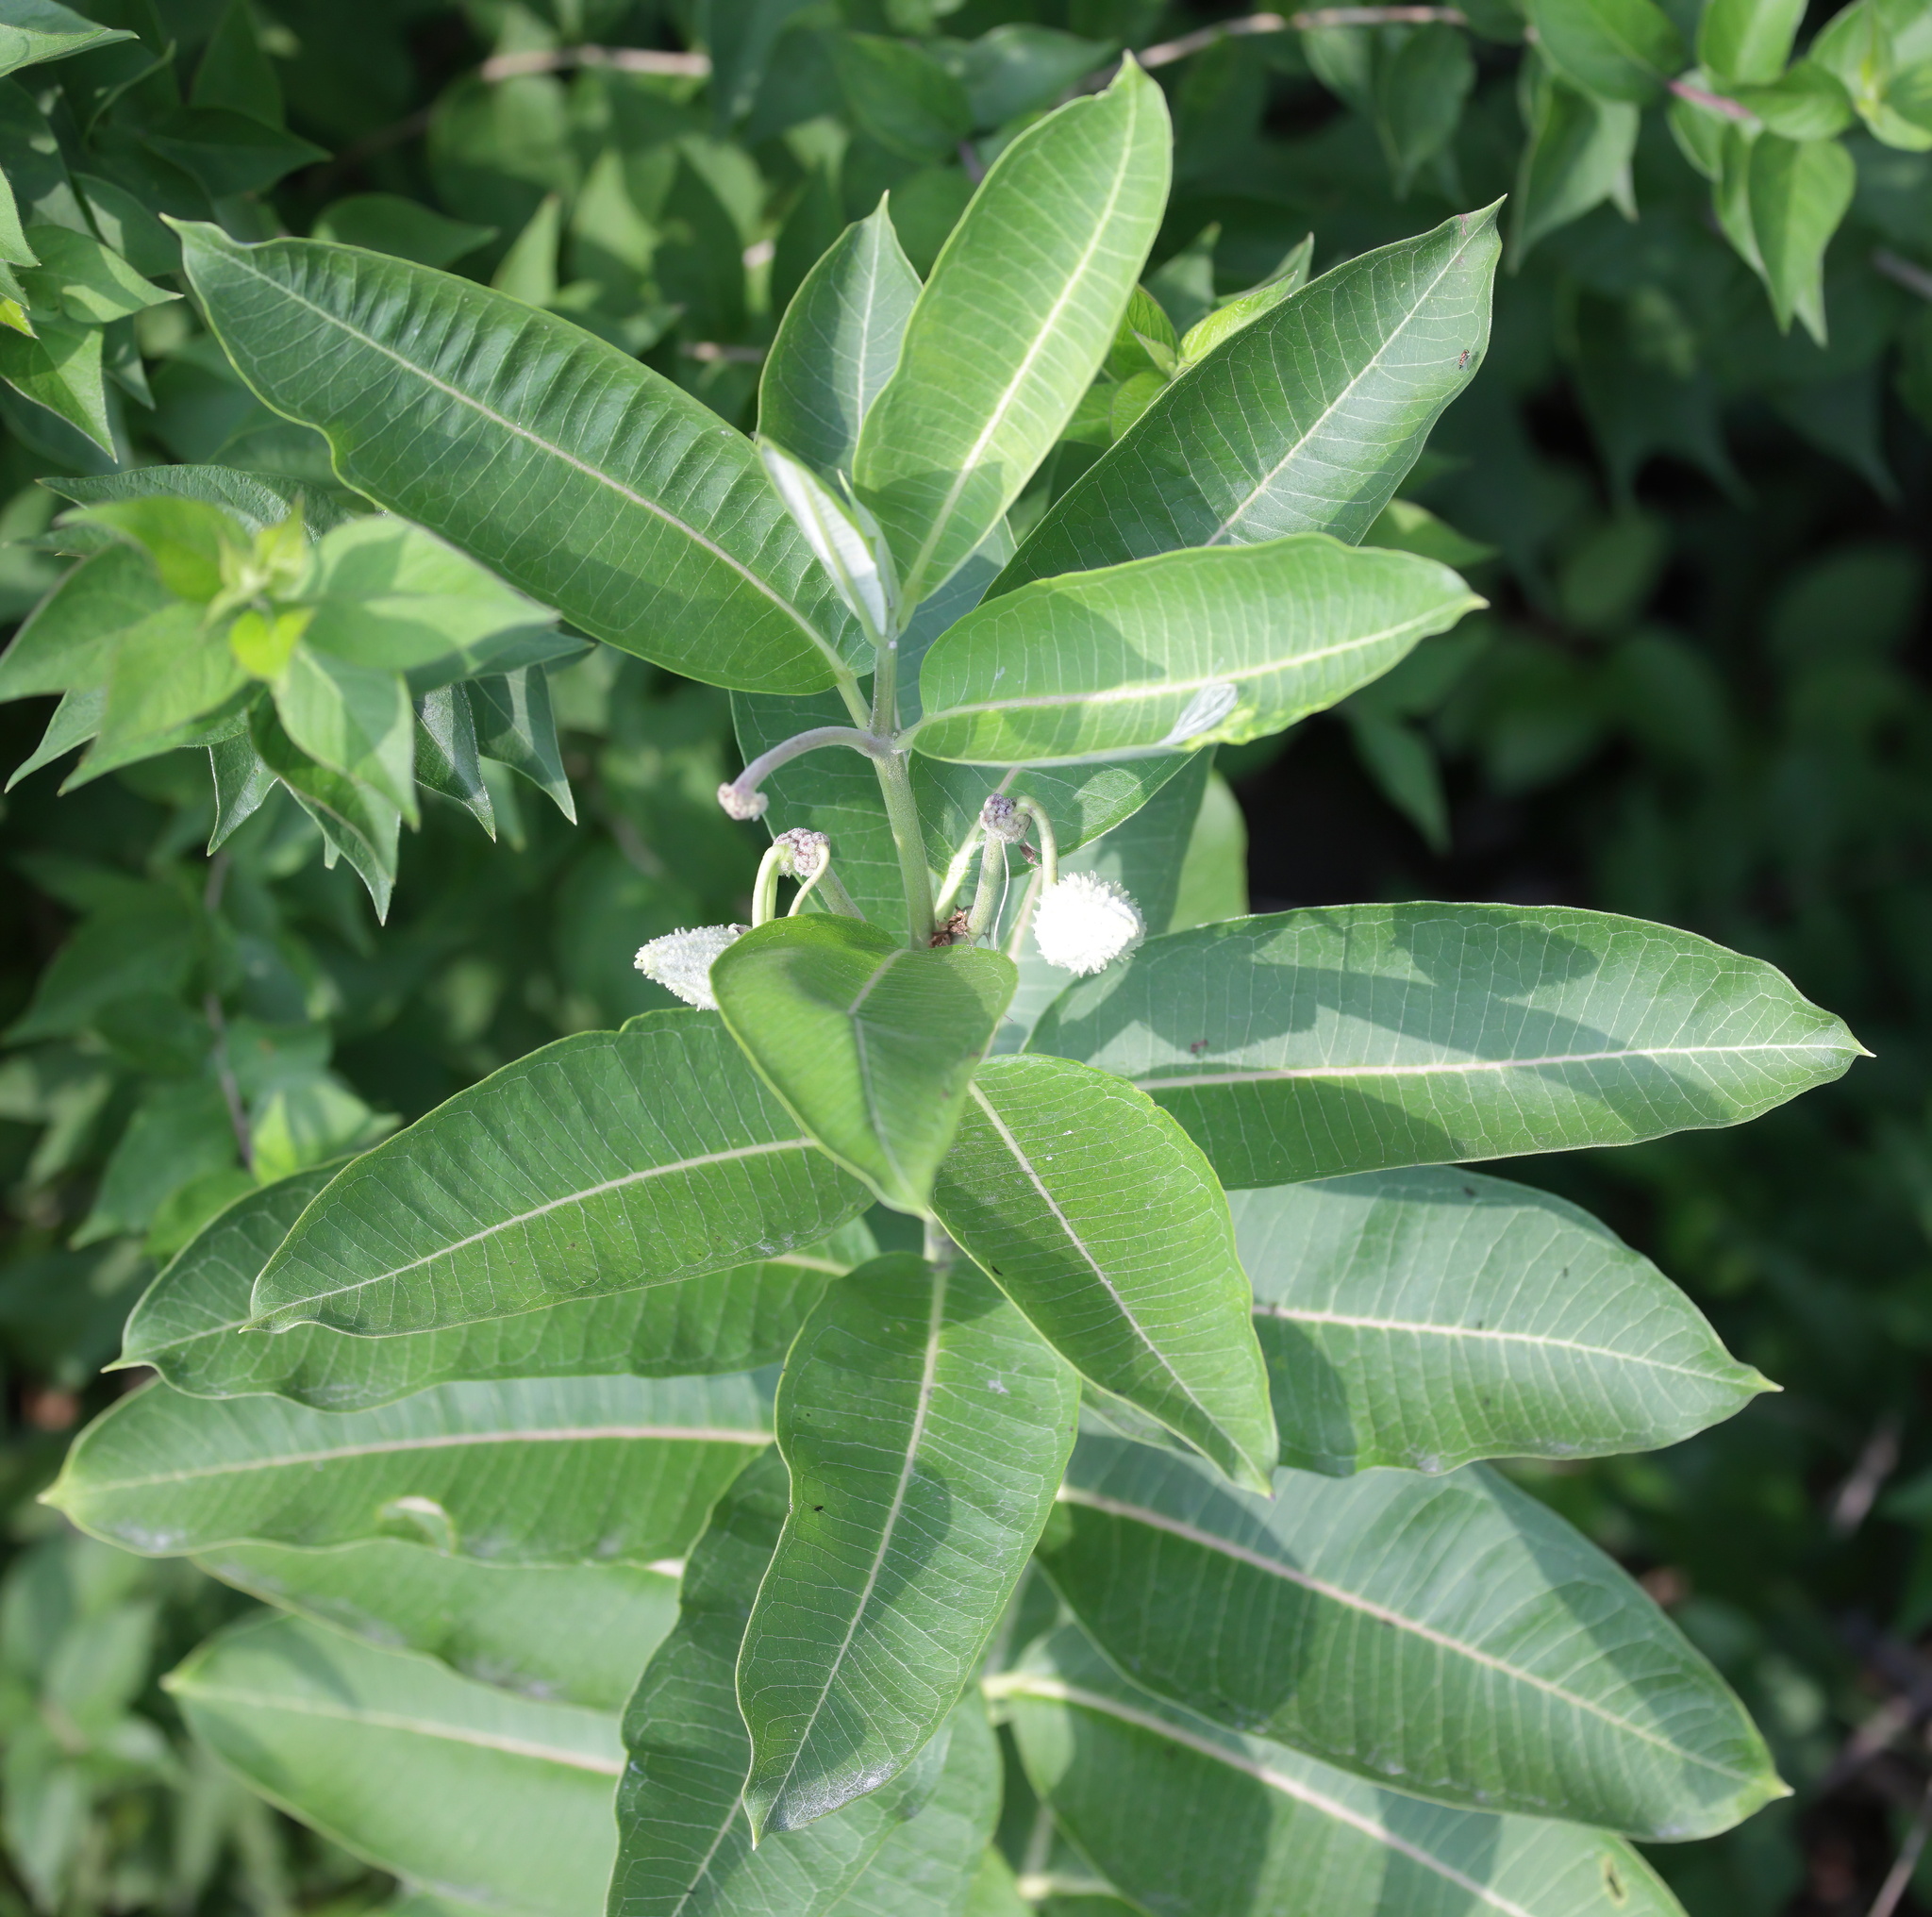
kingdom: Plantae
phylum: Tracheophyta
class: Magnoliopsida
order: Gentianales
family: Apocynaceae
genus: Asclepias
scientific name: Asclepias syriaca
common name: Common milkweed
